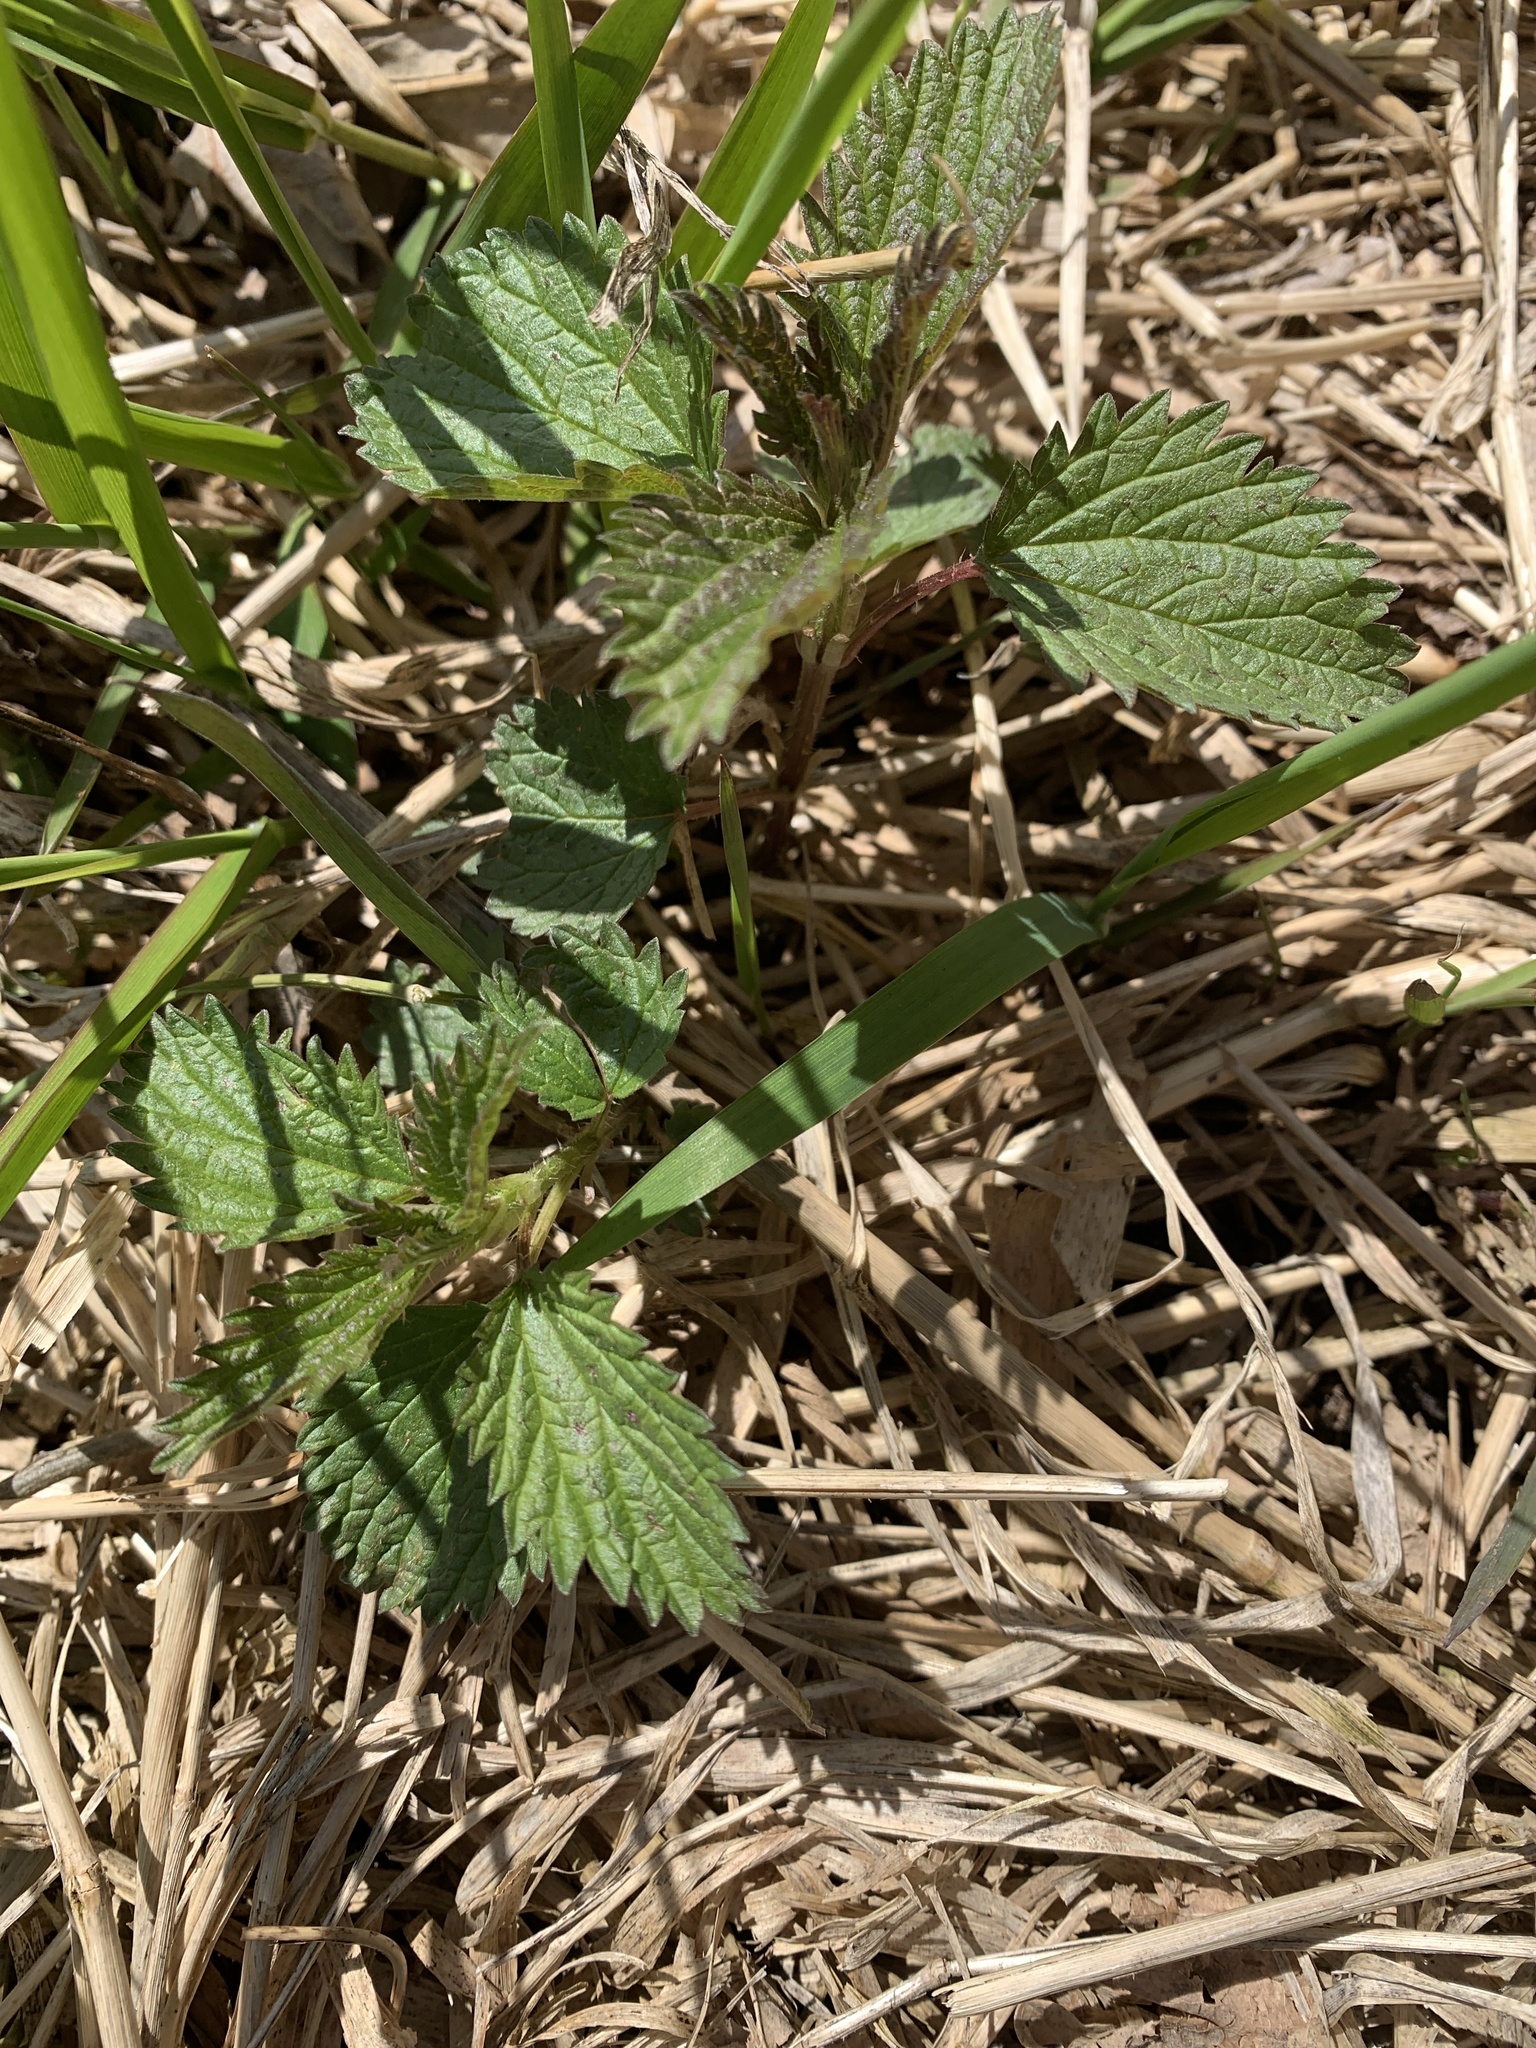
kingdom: Plantae
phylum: Tracheophyta
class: Magnoliopsida
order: Rosales
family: Urticaceae
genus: Urtica
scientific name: Urtica dioica
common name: Common nettle
